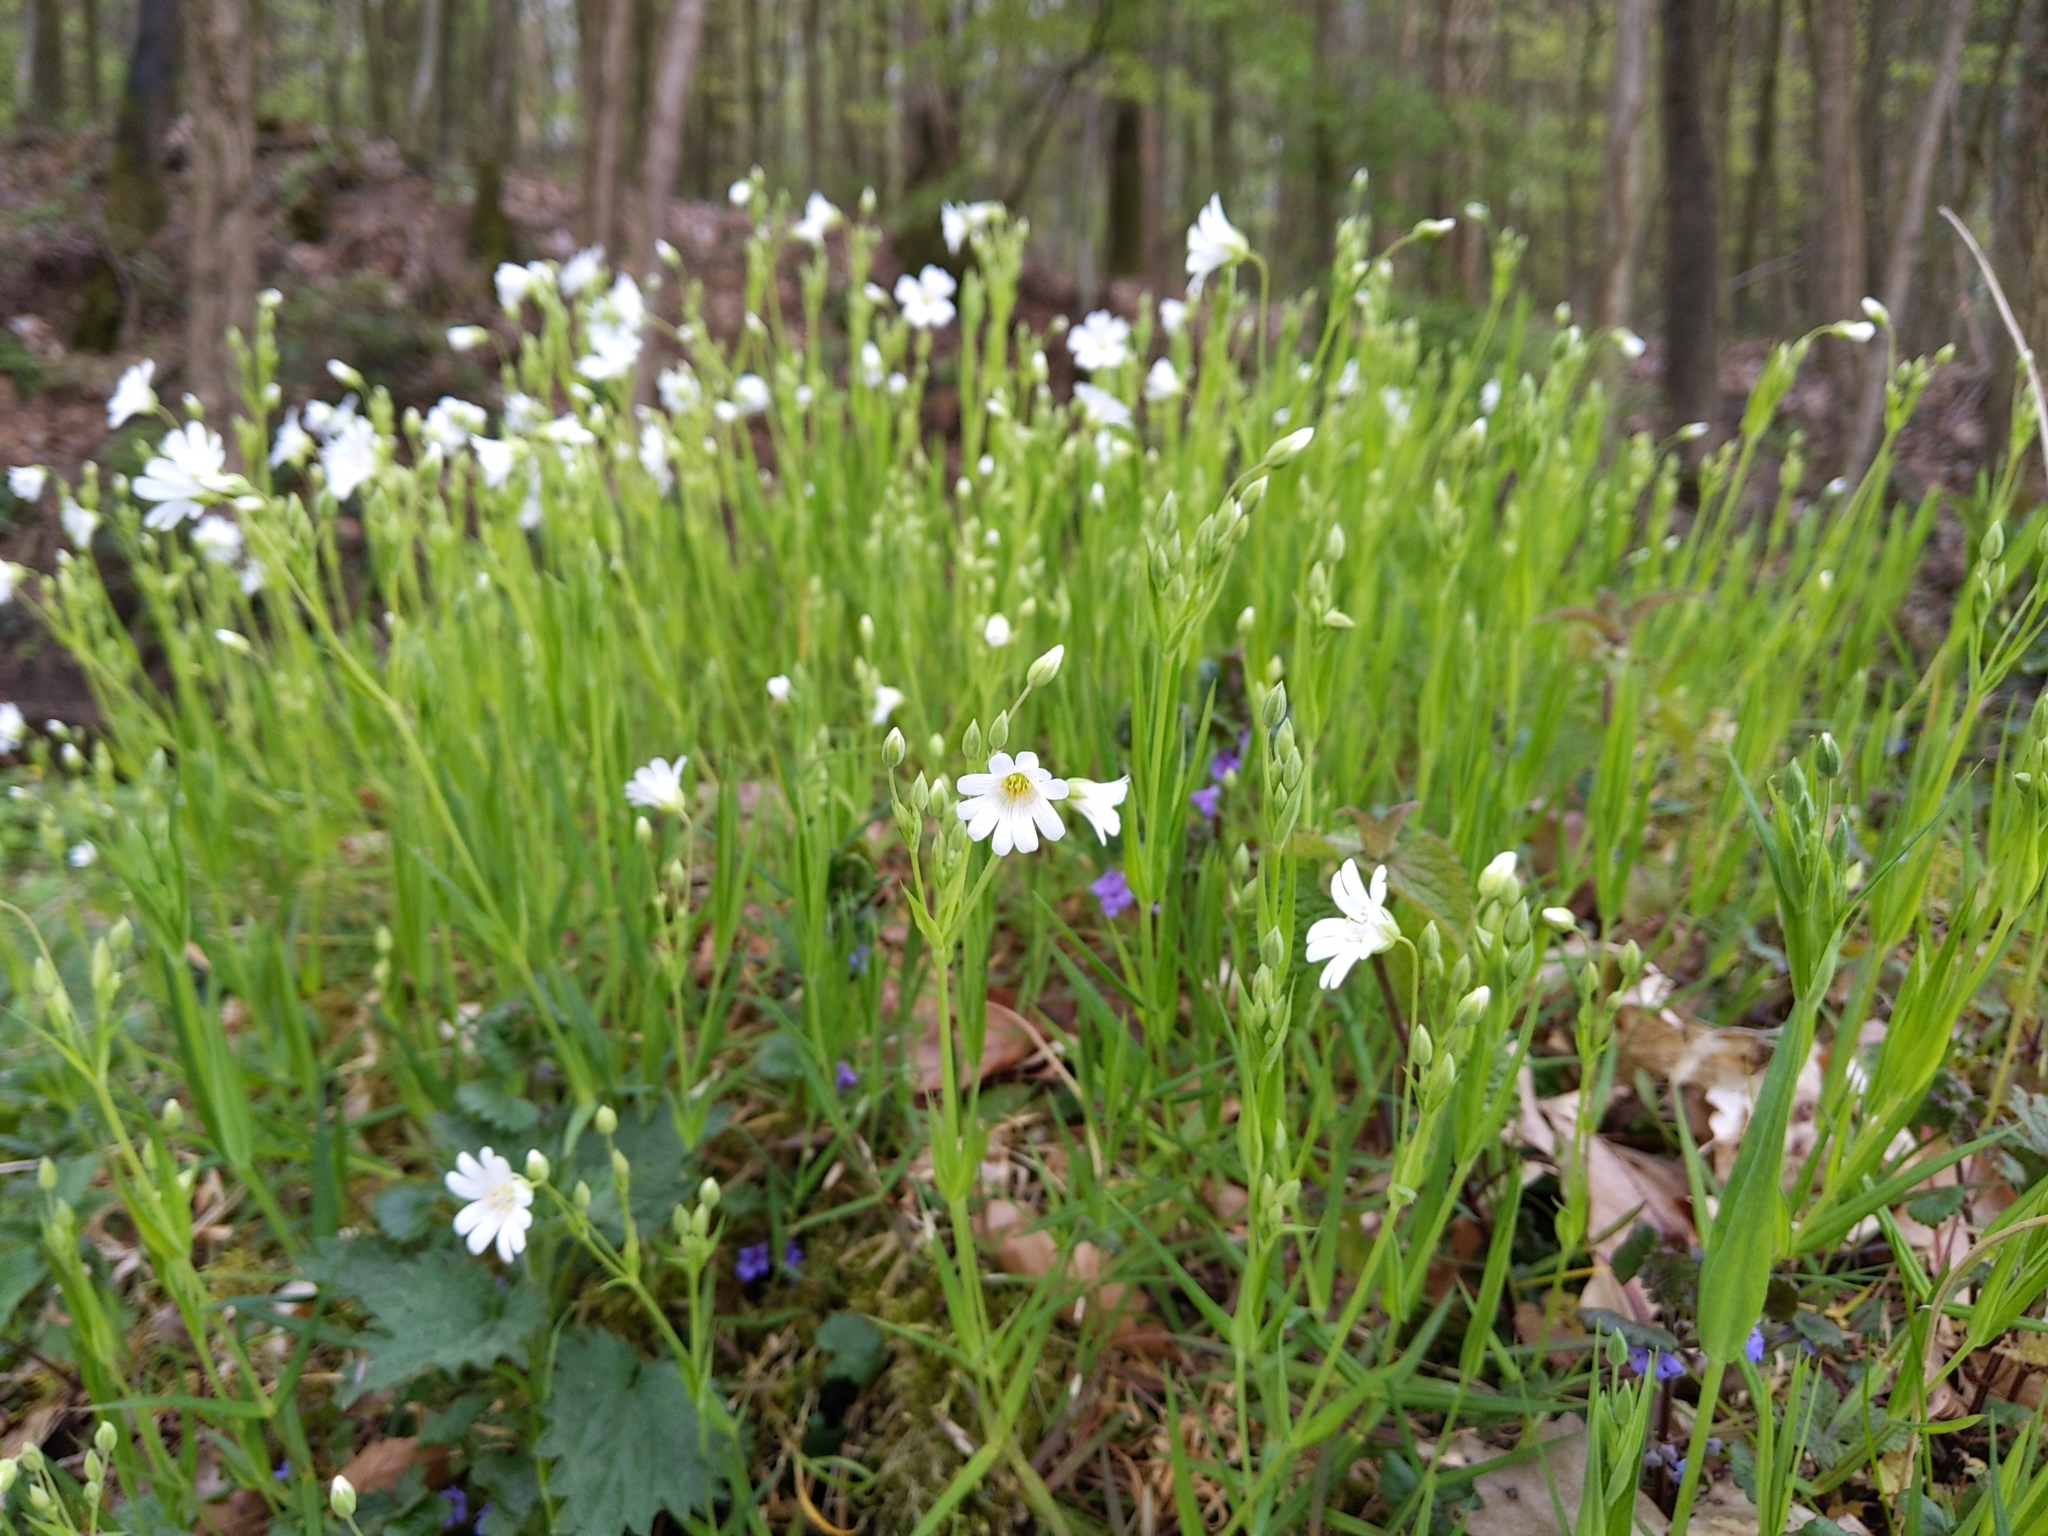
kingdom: Plantae
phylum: Tracheophyta
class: Magnoliopsida
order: Caryophyllales
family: Caryophyllaceae
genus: Rabelera
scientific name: Rabelera holostea
